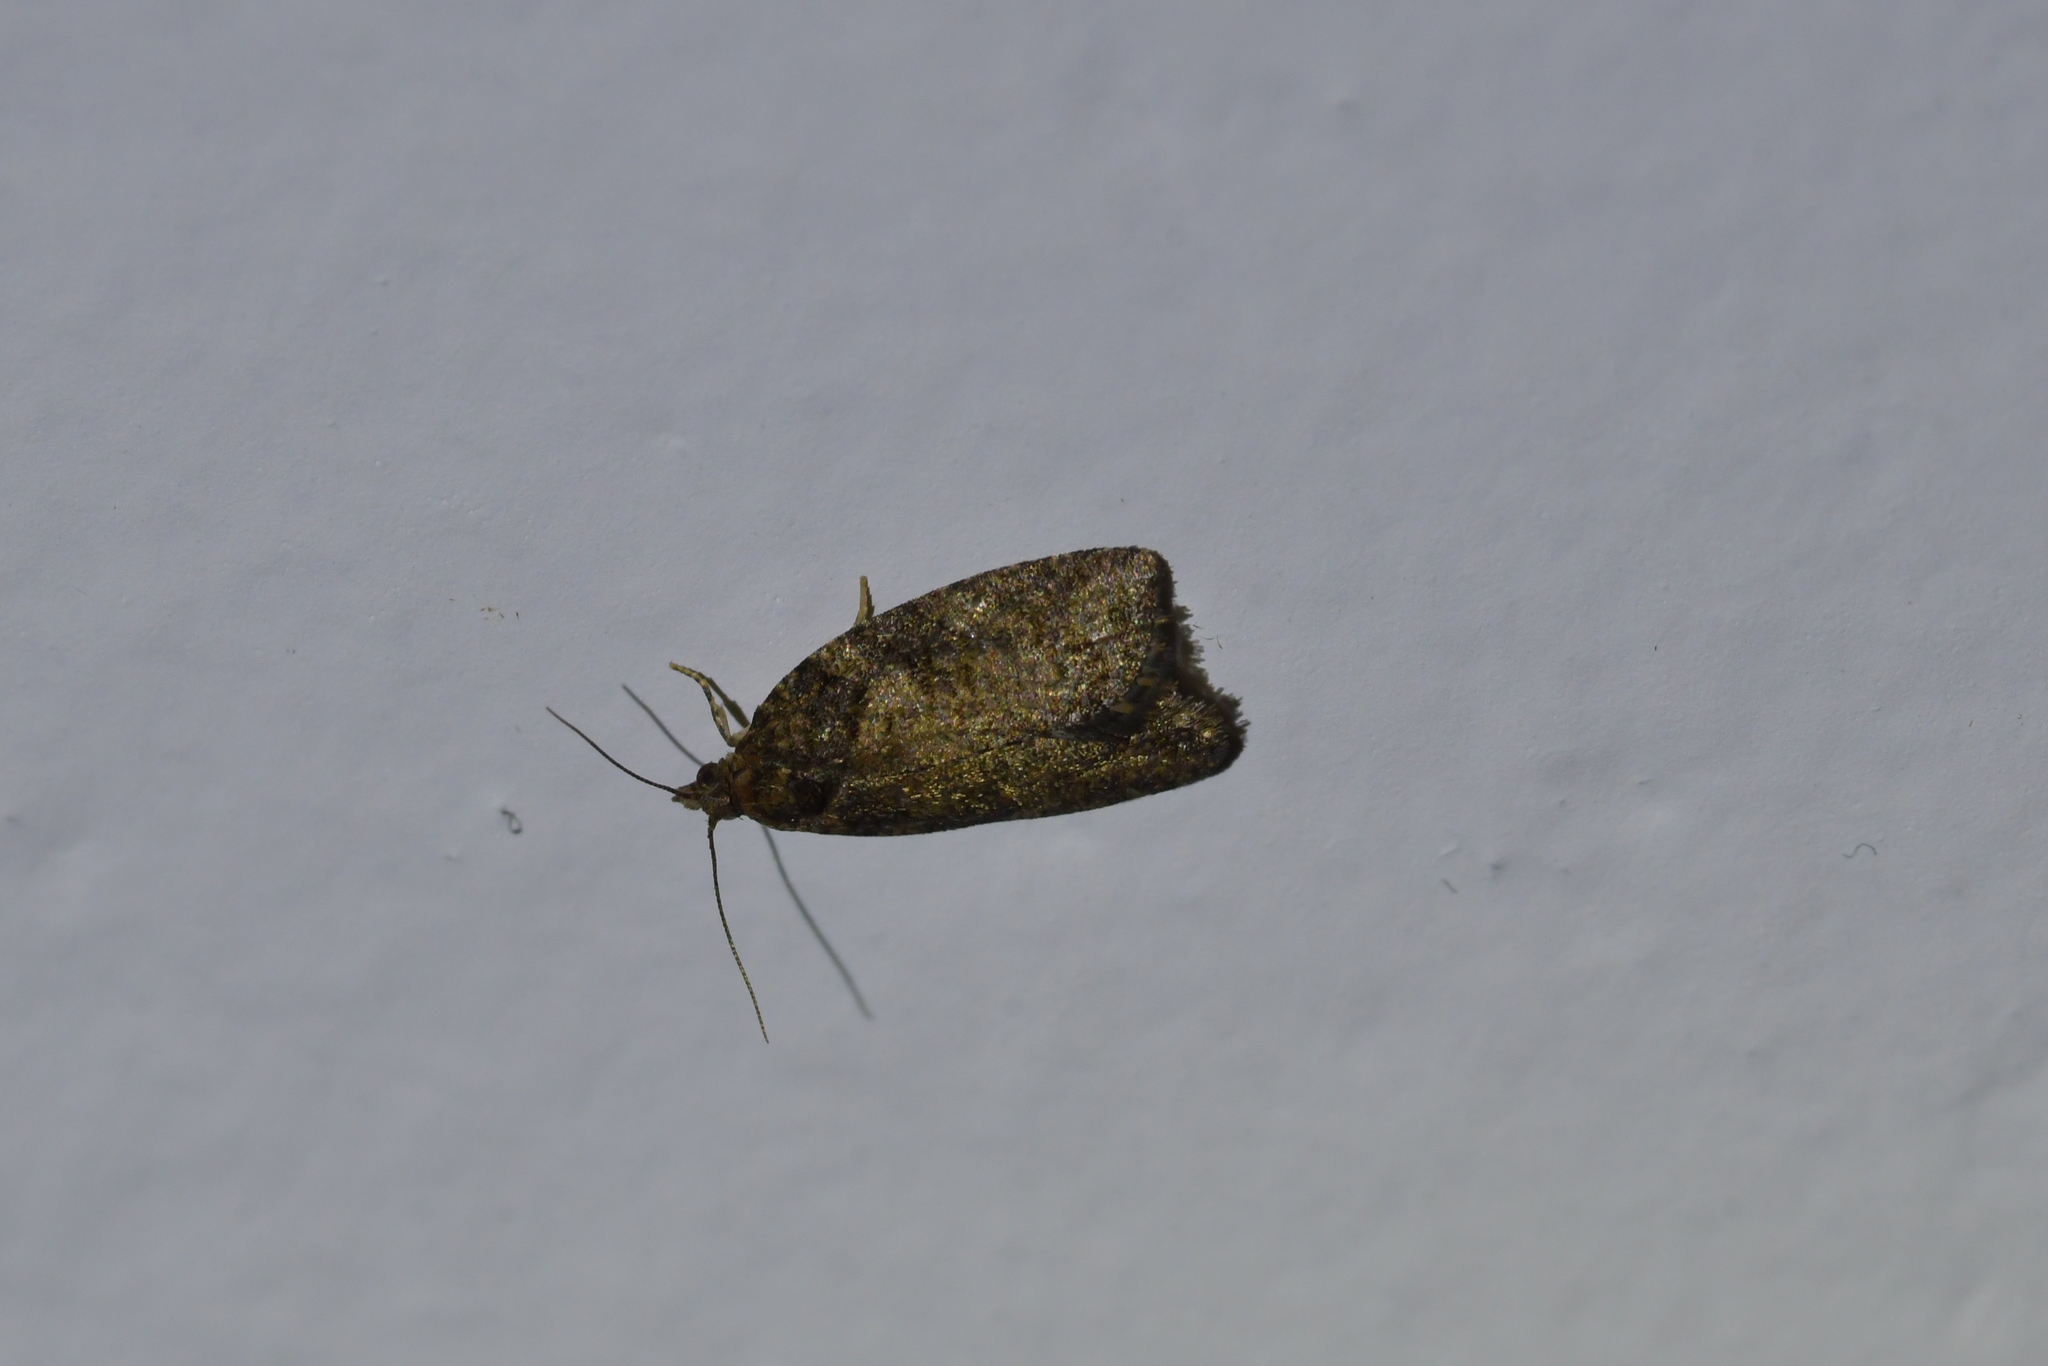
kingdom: Animalia
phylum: Arthropoda
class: Insecta
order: Lepidoptera
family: Tortricidae
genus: Capua
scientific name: Capua intractana
